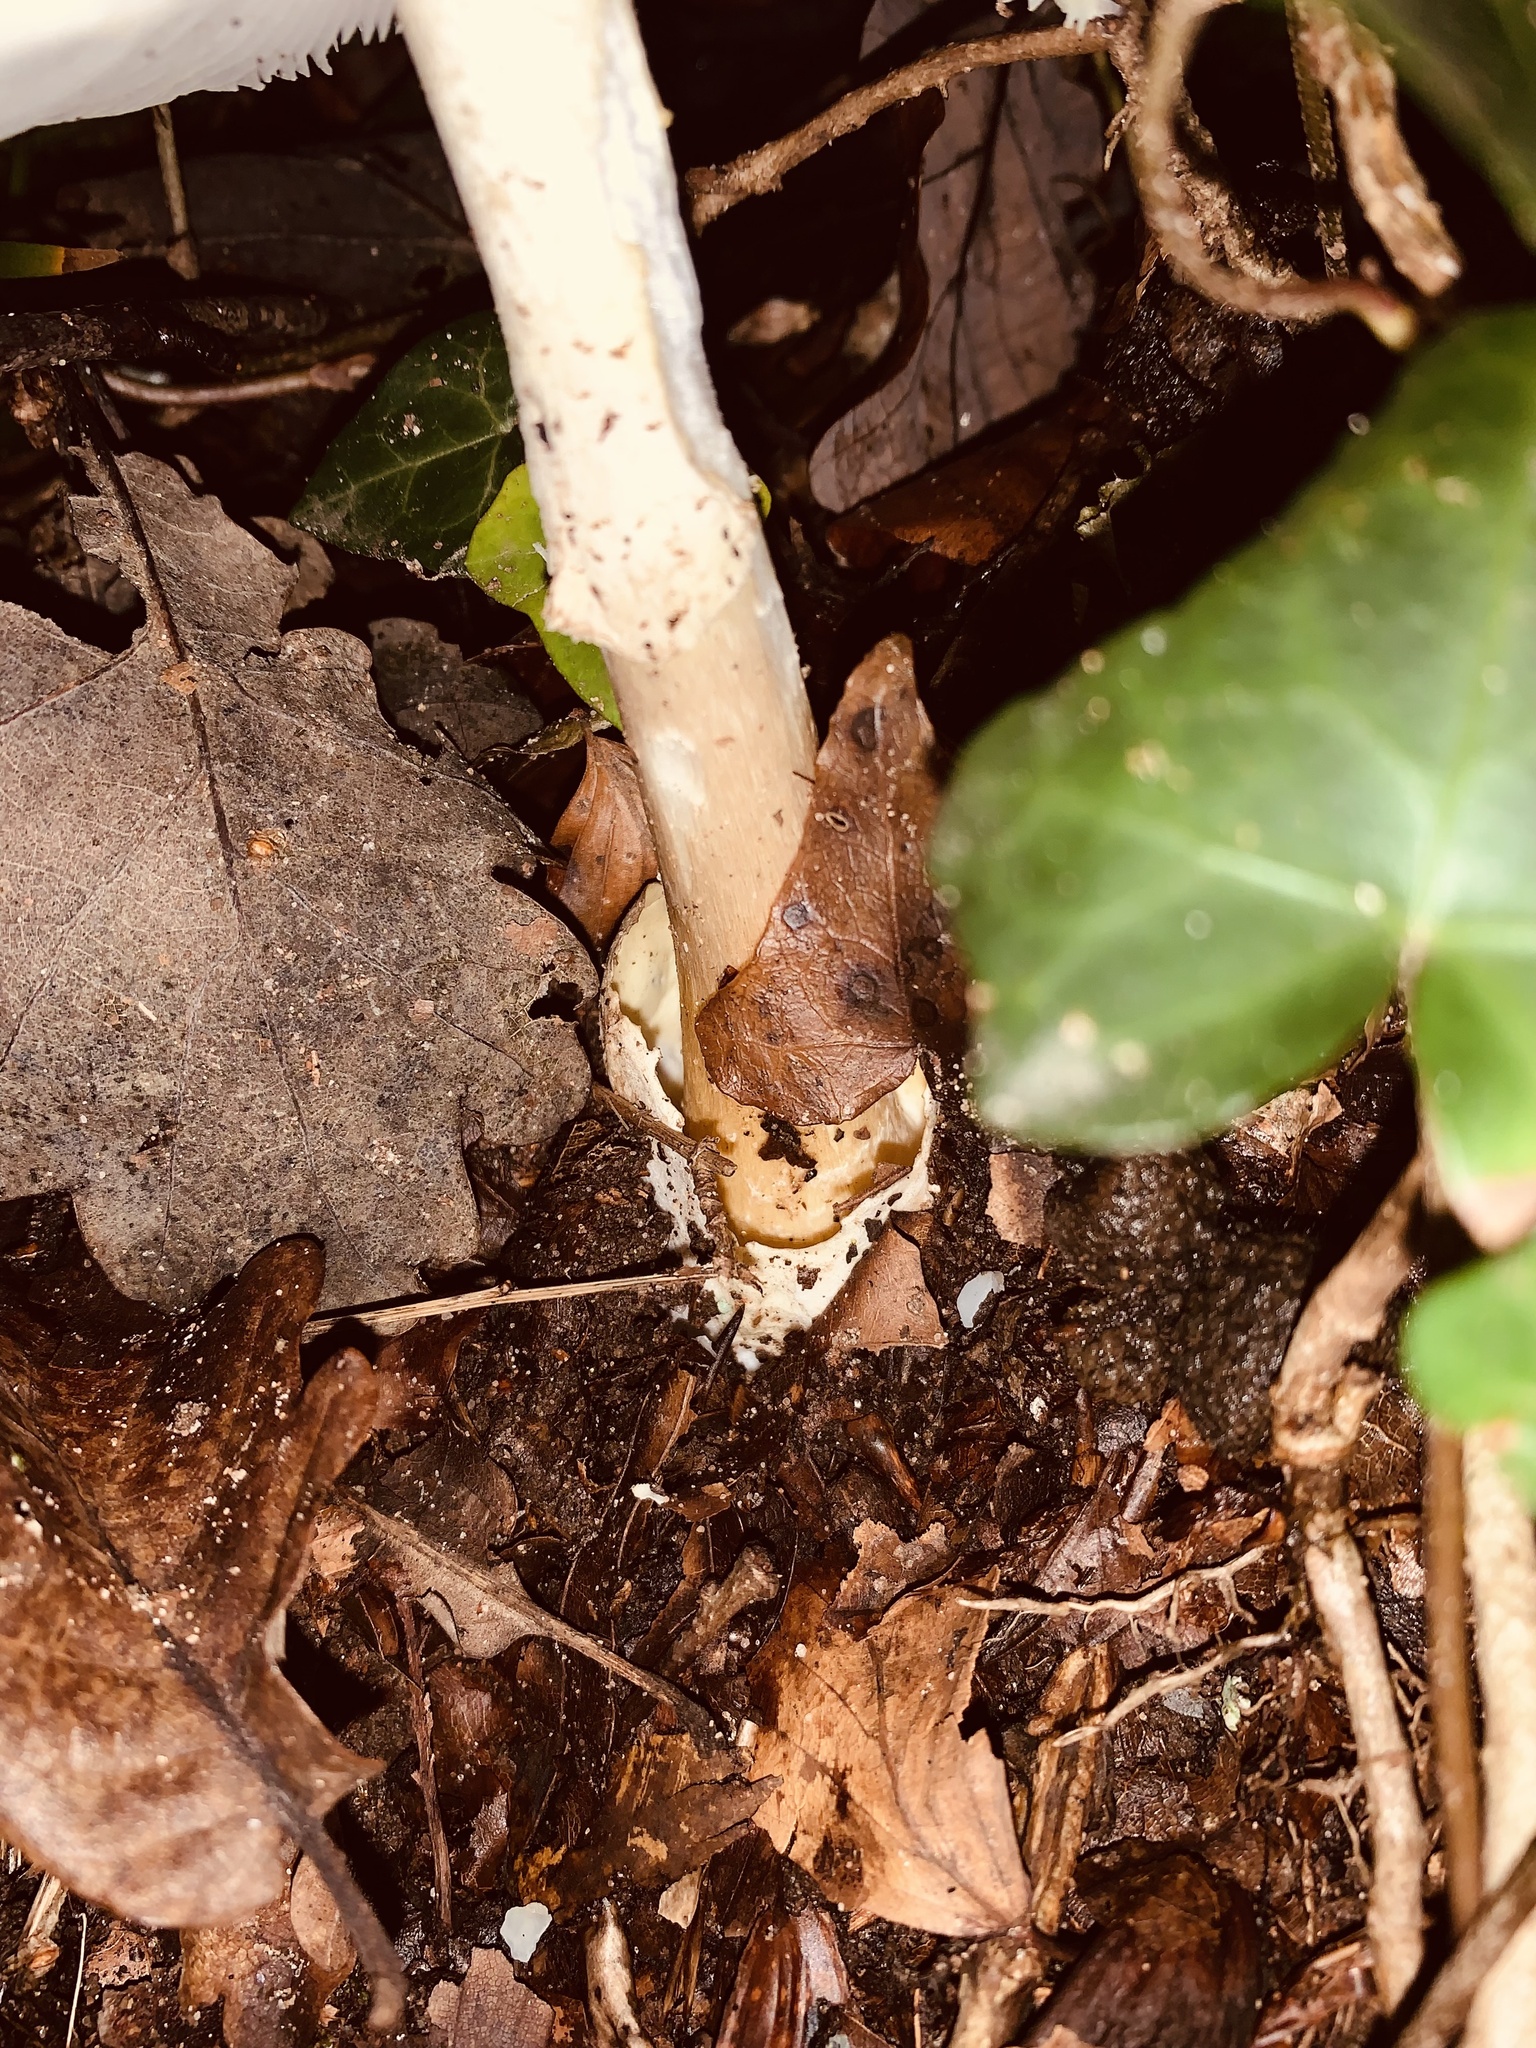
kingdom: Fungi
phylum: Basidiomycota
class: Agaricomycetes
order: Agaricales
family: Amanitaceae
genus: Amanita
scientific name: Amanita phalloides
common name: Death cap
